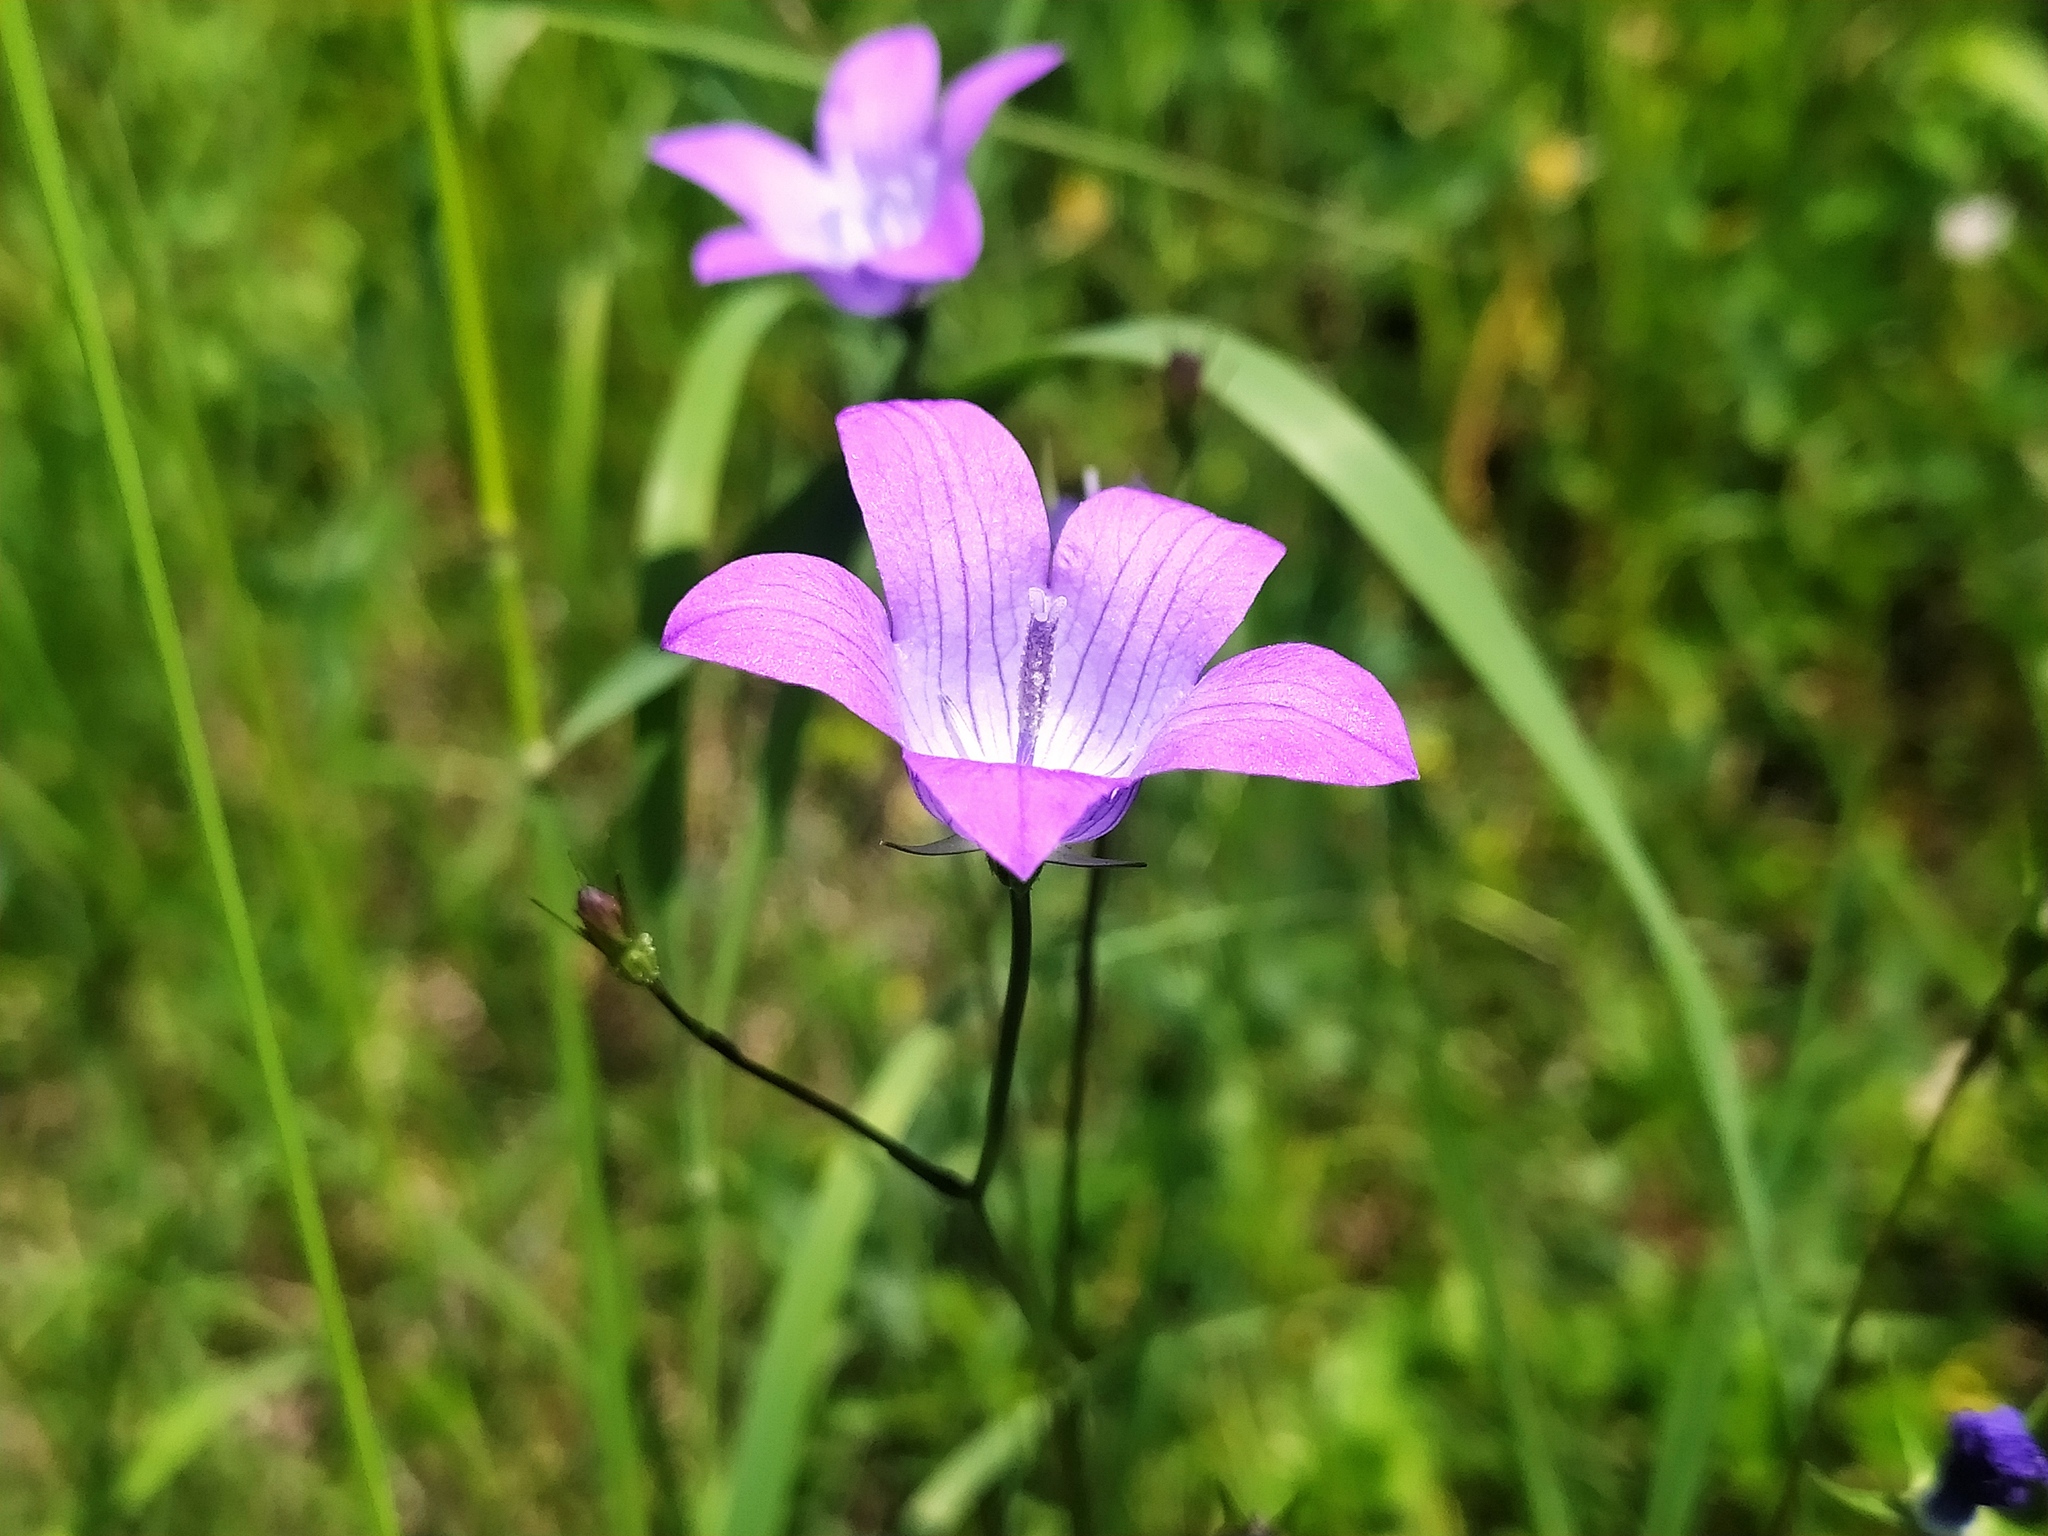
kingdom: Plantae
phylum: Tracheophyta
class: Magnoliopsida
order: Asterales
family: Campanulaceae
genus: Campanula
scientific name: Campanula patula
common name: Spreading bellflower
